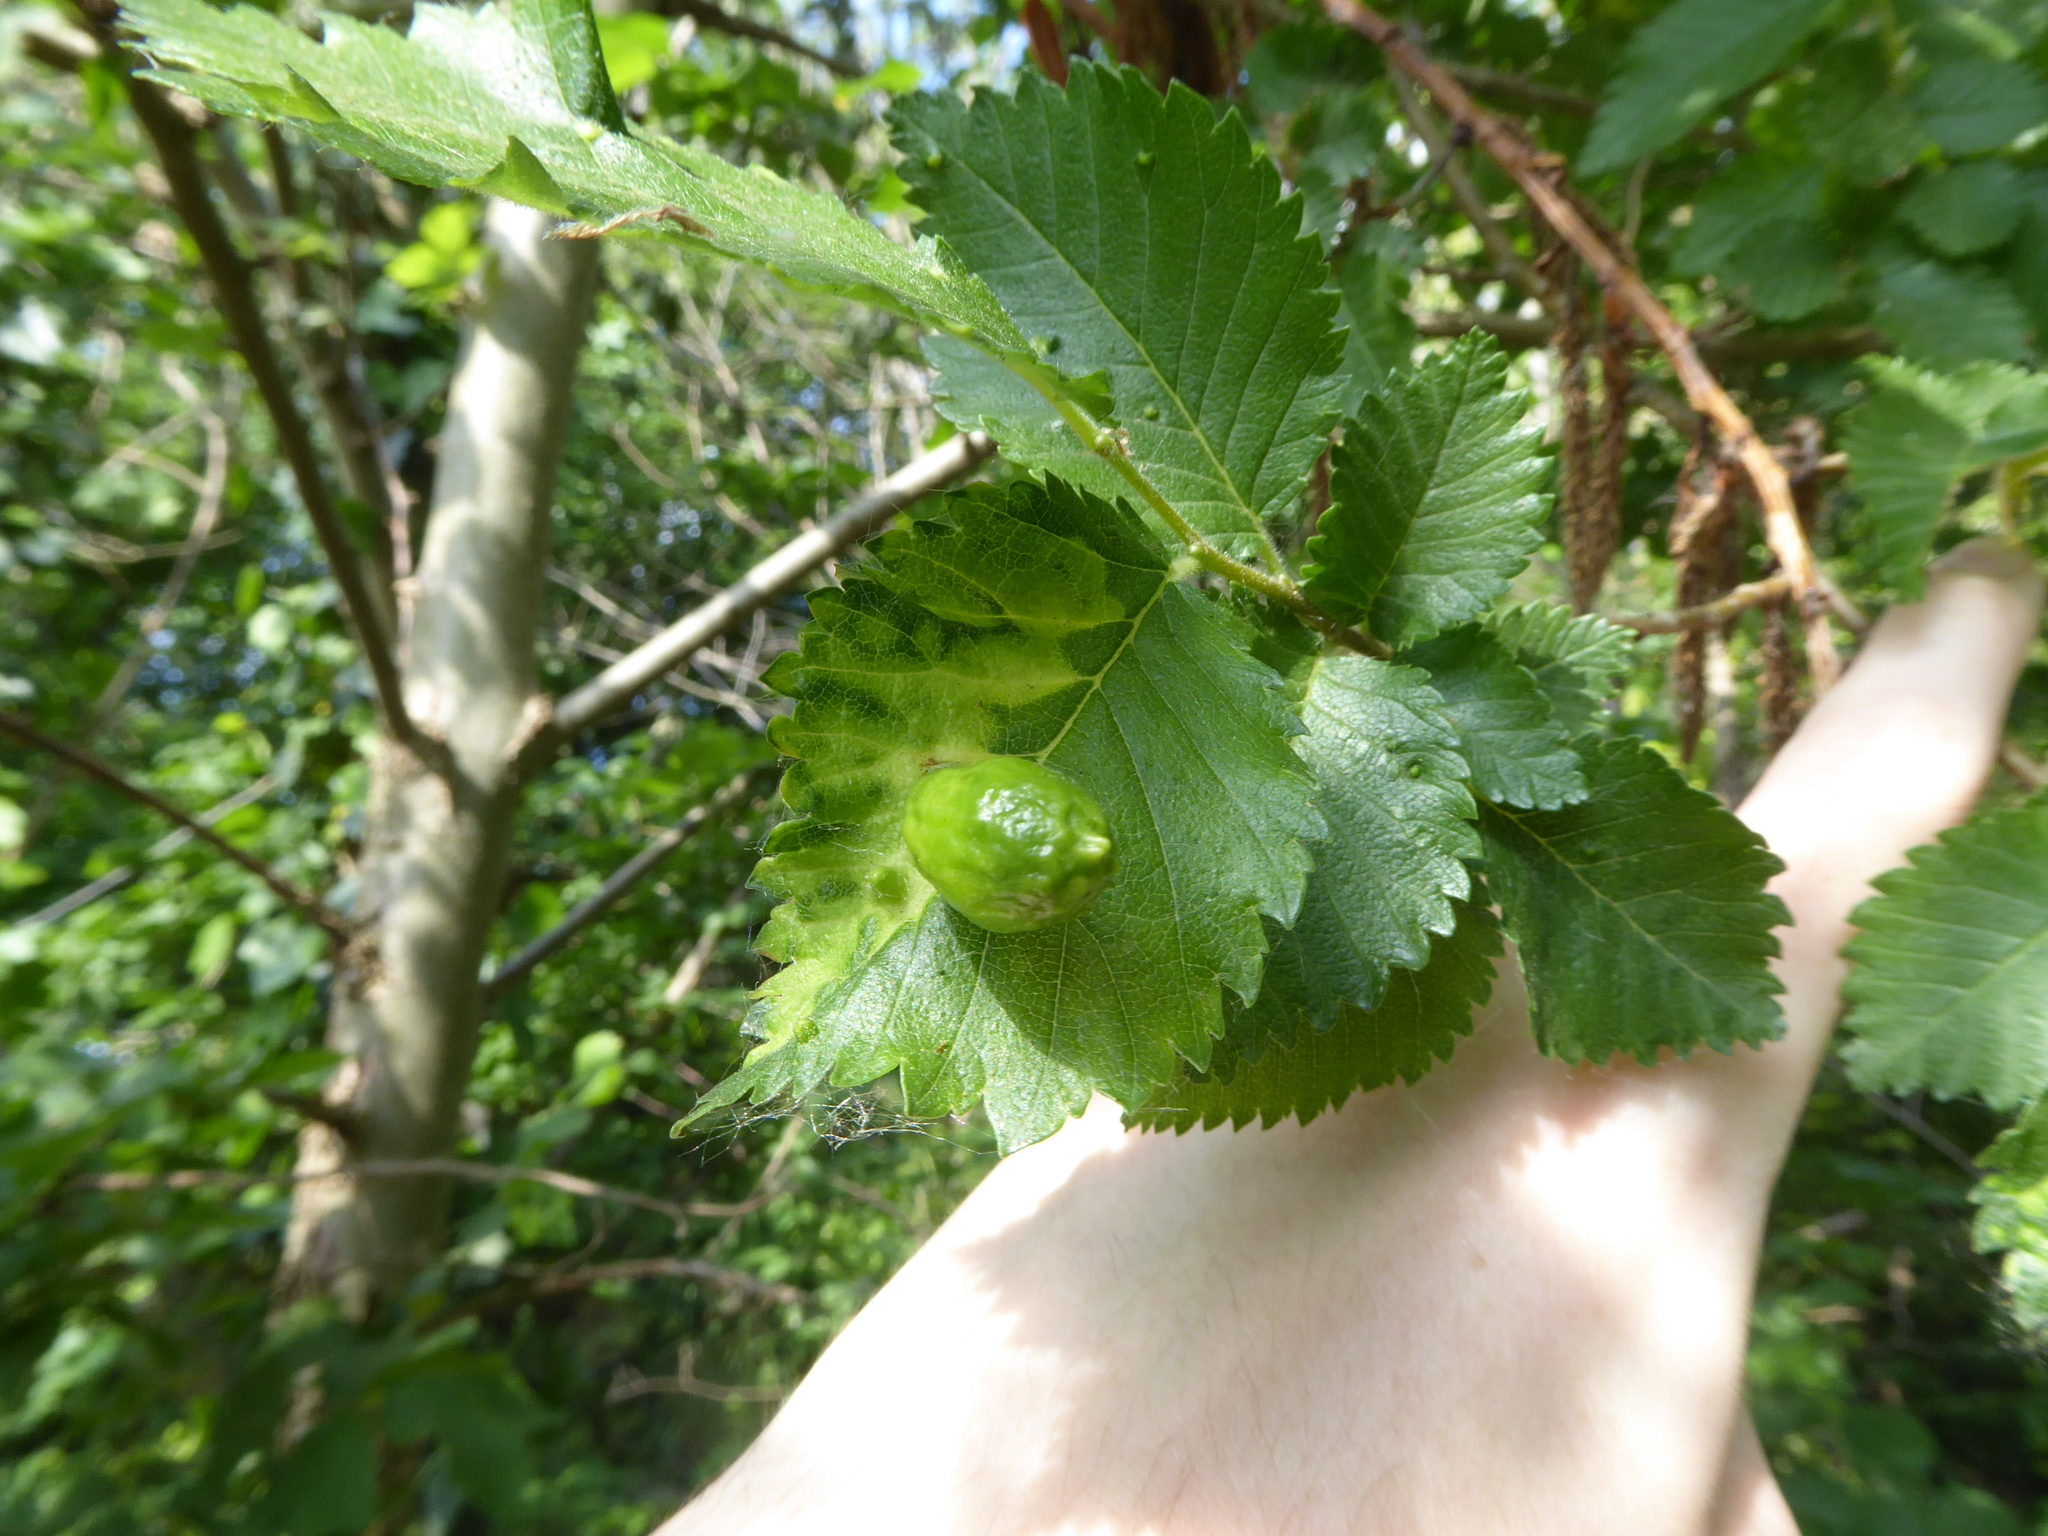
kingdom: Animalia
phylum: Arthropoda
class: Insecta
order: Hemiptera
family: Aphididae
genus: Tetraneura
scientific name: Tetraneura ulmi
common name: Aphid
